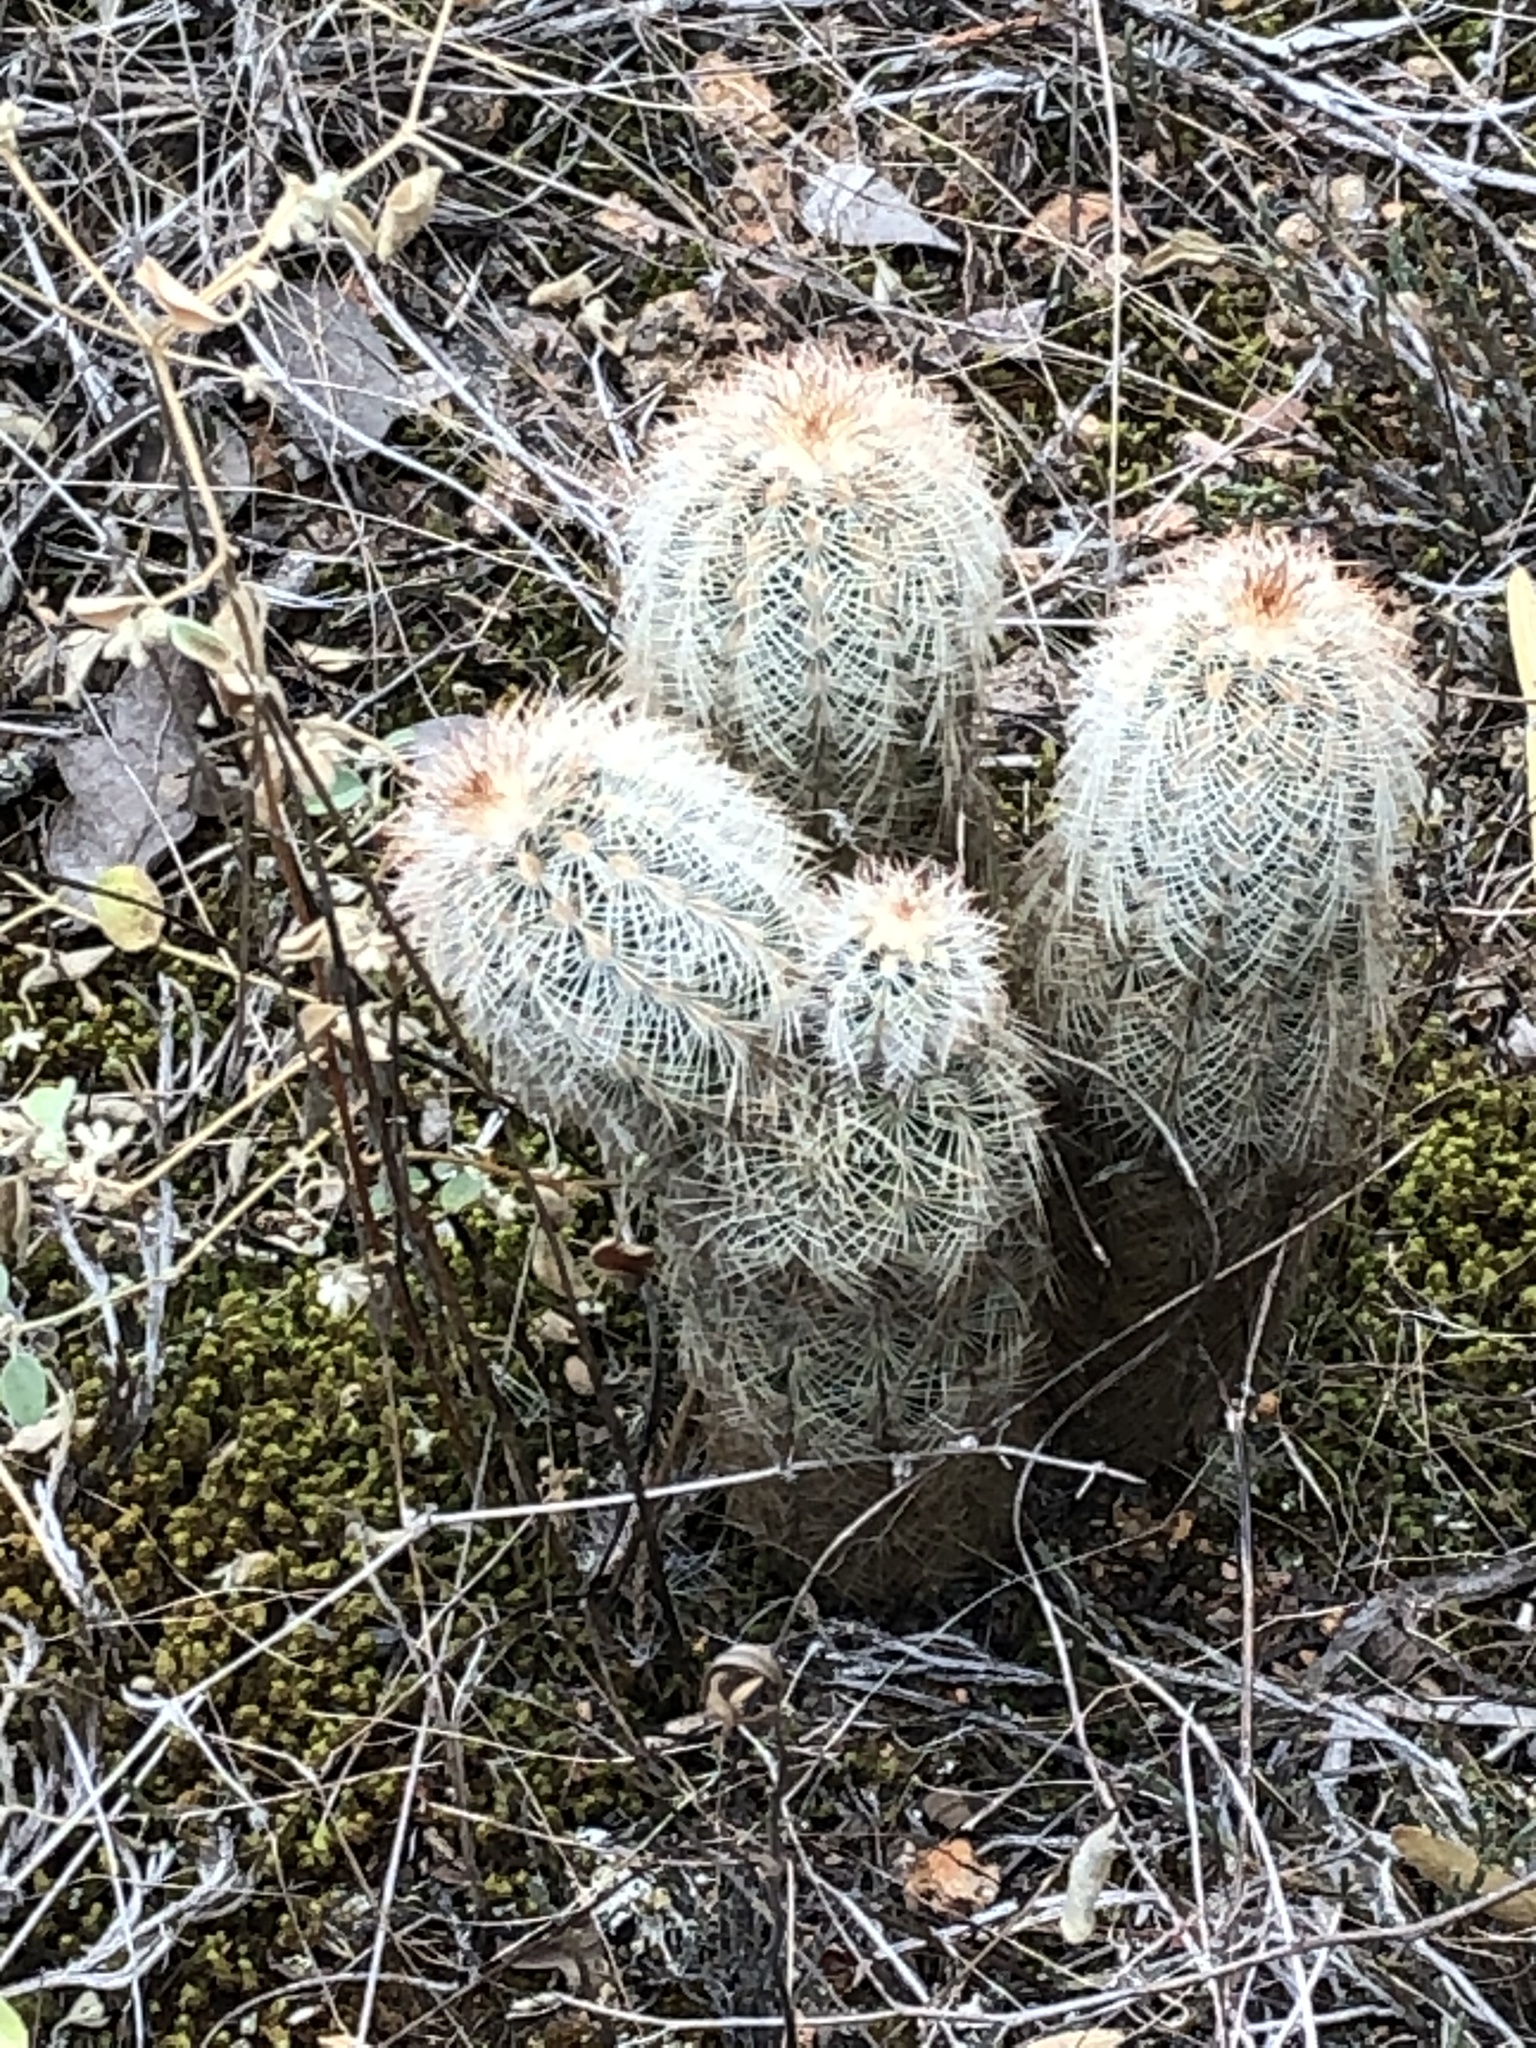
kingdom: Plantae
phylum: Tracheophyta
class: Magnoliopsida
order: Caryophyllales
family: Cactaceae
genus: Echinocereus
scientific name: Echinocereus reichenbachii
